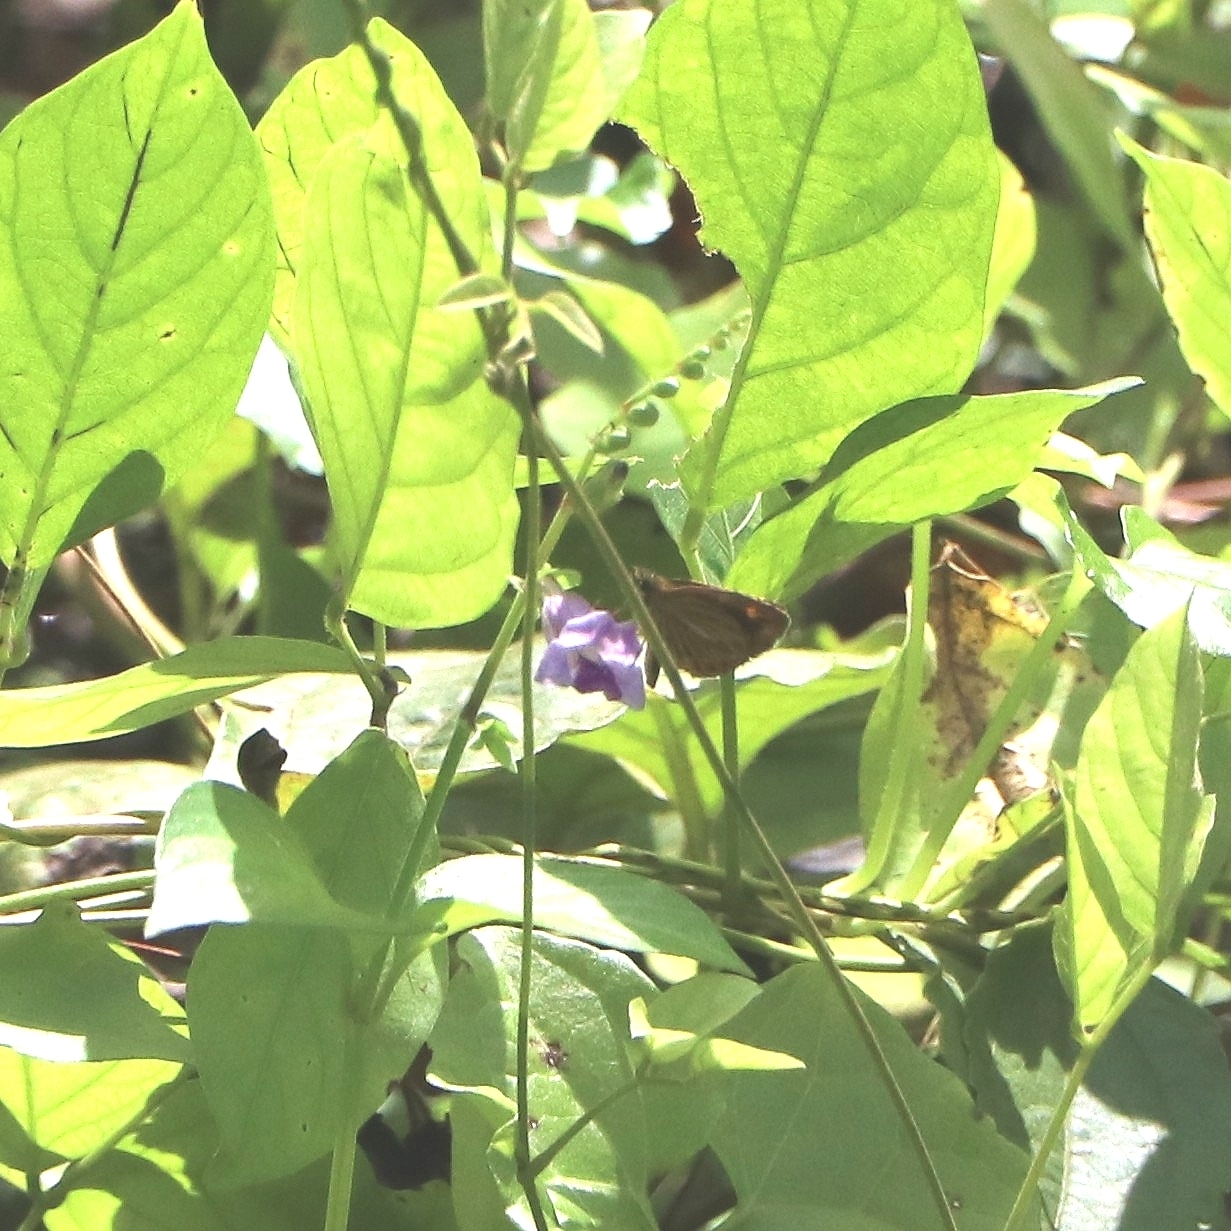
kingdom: Animalia
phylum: Arthropoda
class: Insecta
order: Lepidoptera
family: Hesperiidae
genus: Baracus
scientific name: Baracus vittatus
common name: Hedge-hopper
